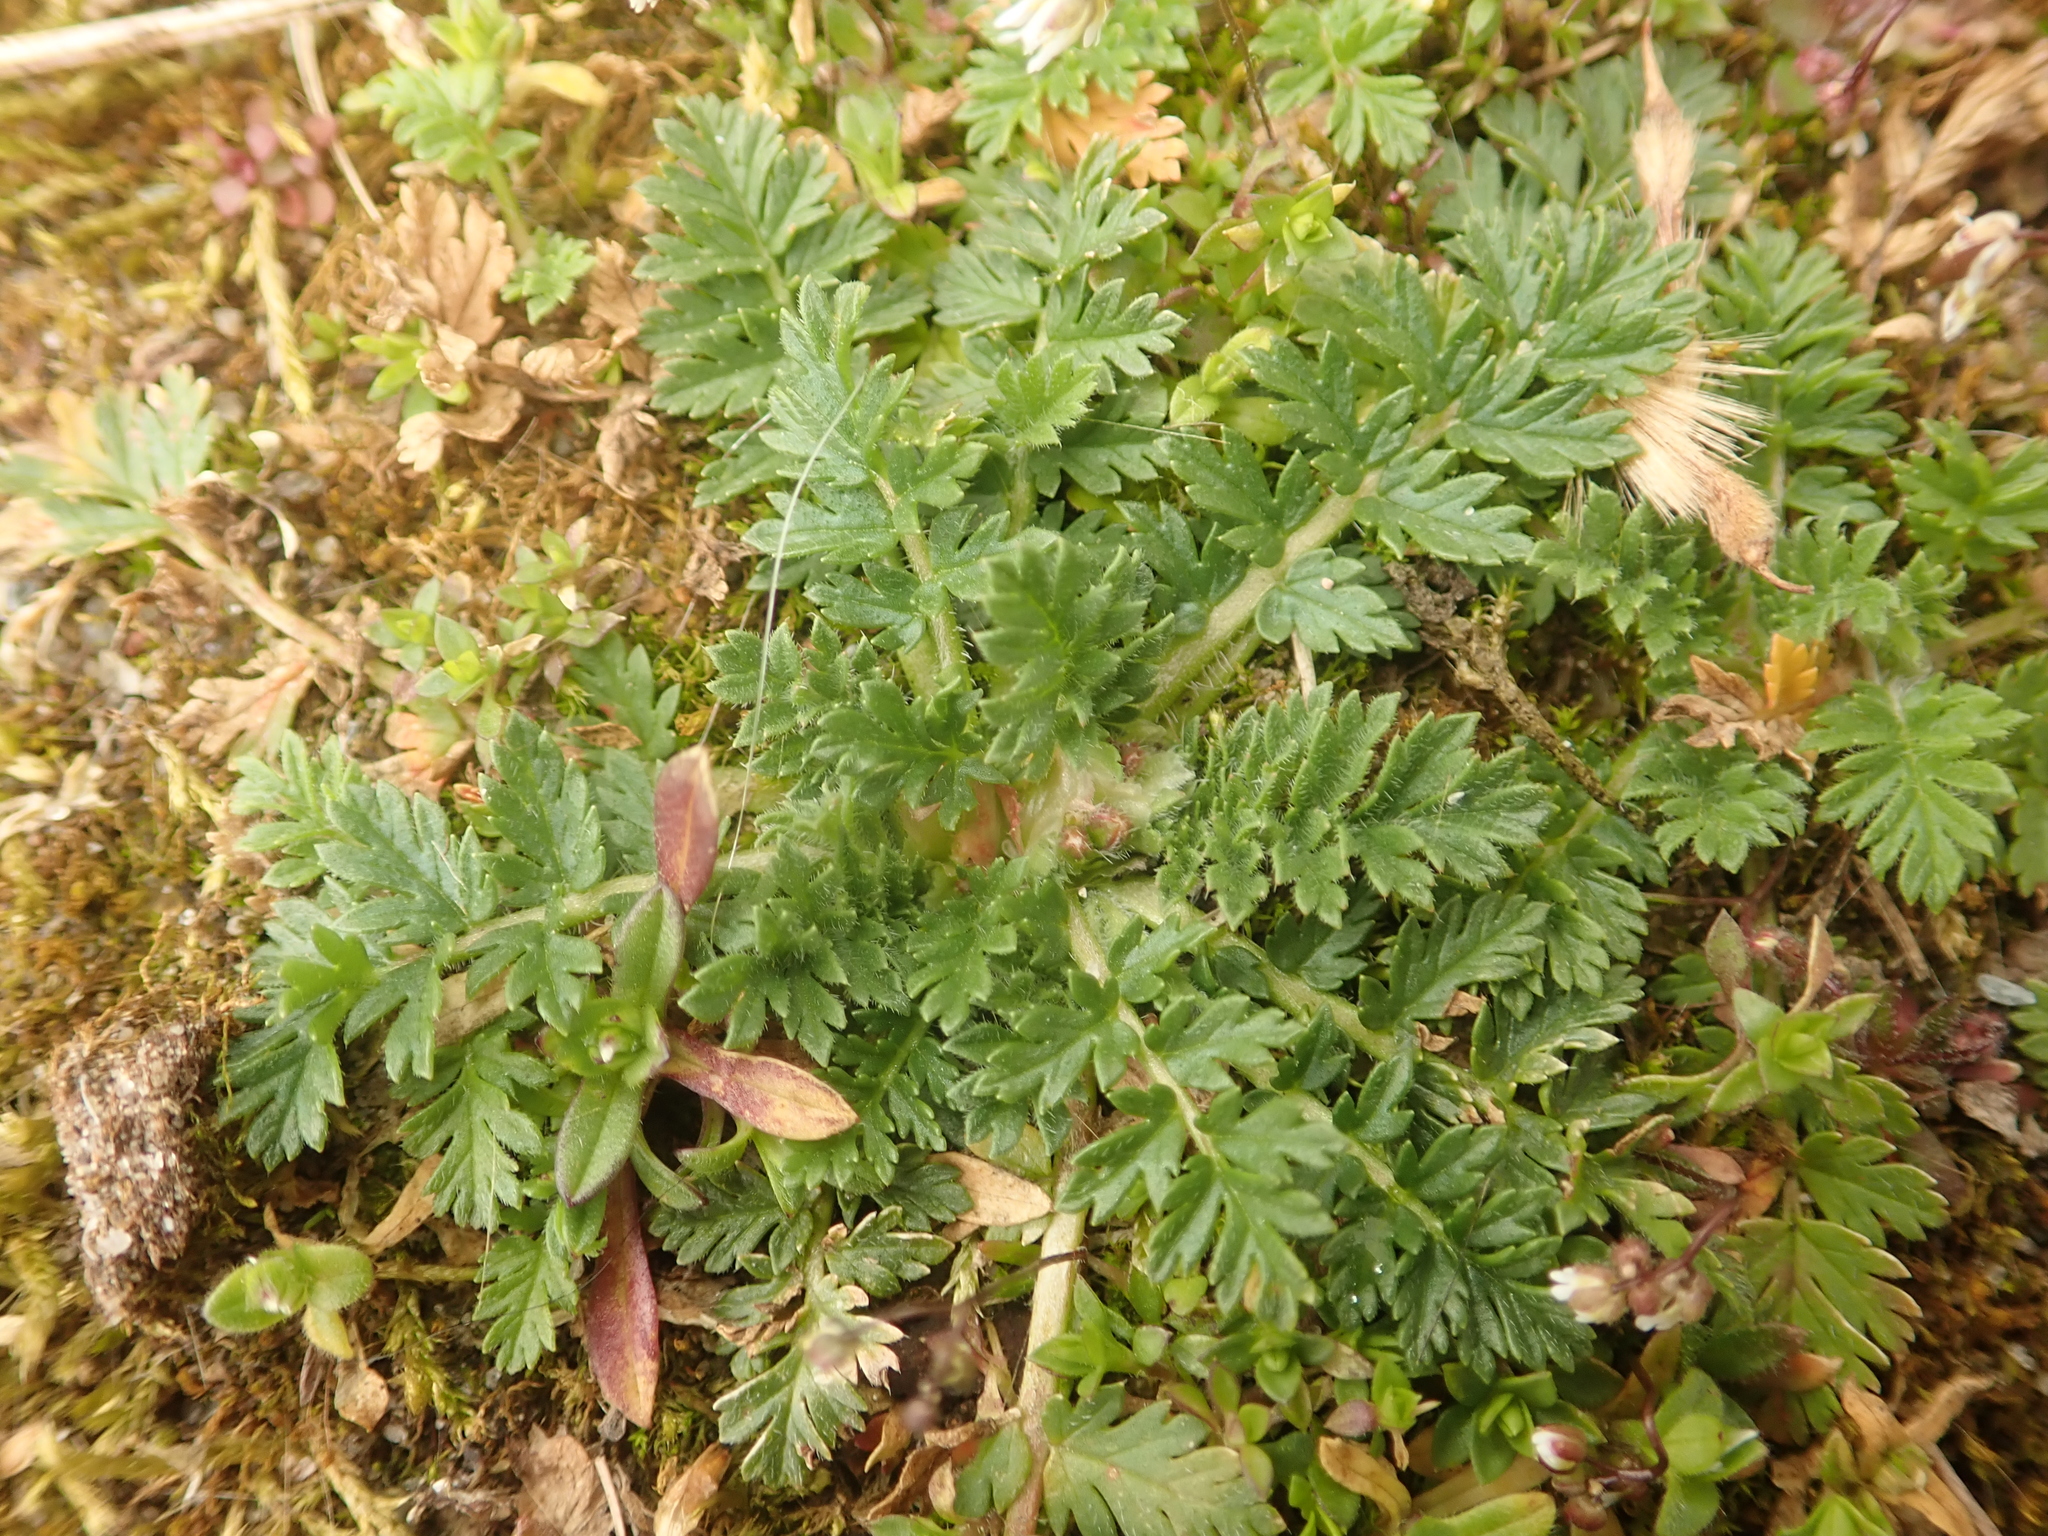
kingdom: Plantae
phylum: Tracheophyta
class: Magnoliopsida
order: Geraniales
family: Geraniaceae
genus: Erodium
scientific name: Erodium cicutarium
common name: Common stork's-bill
